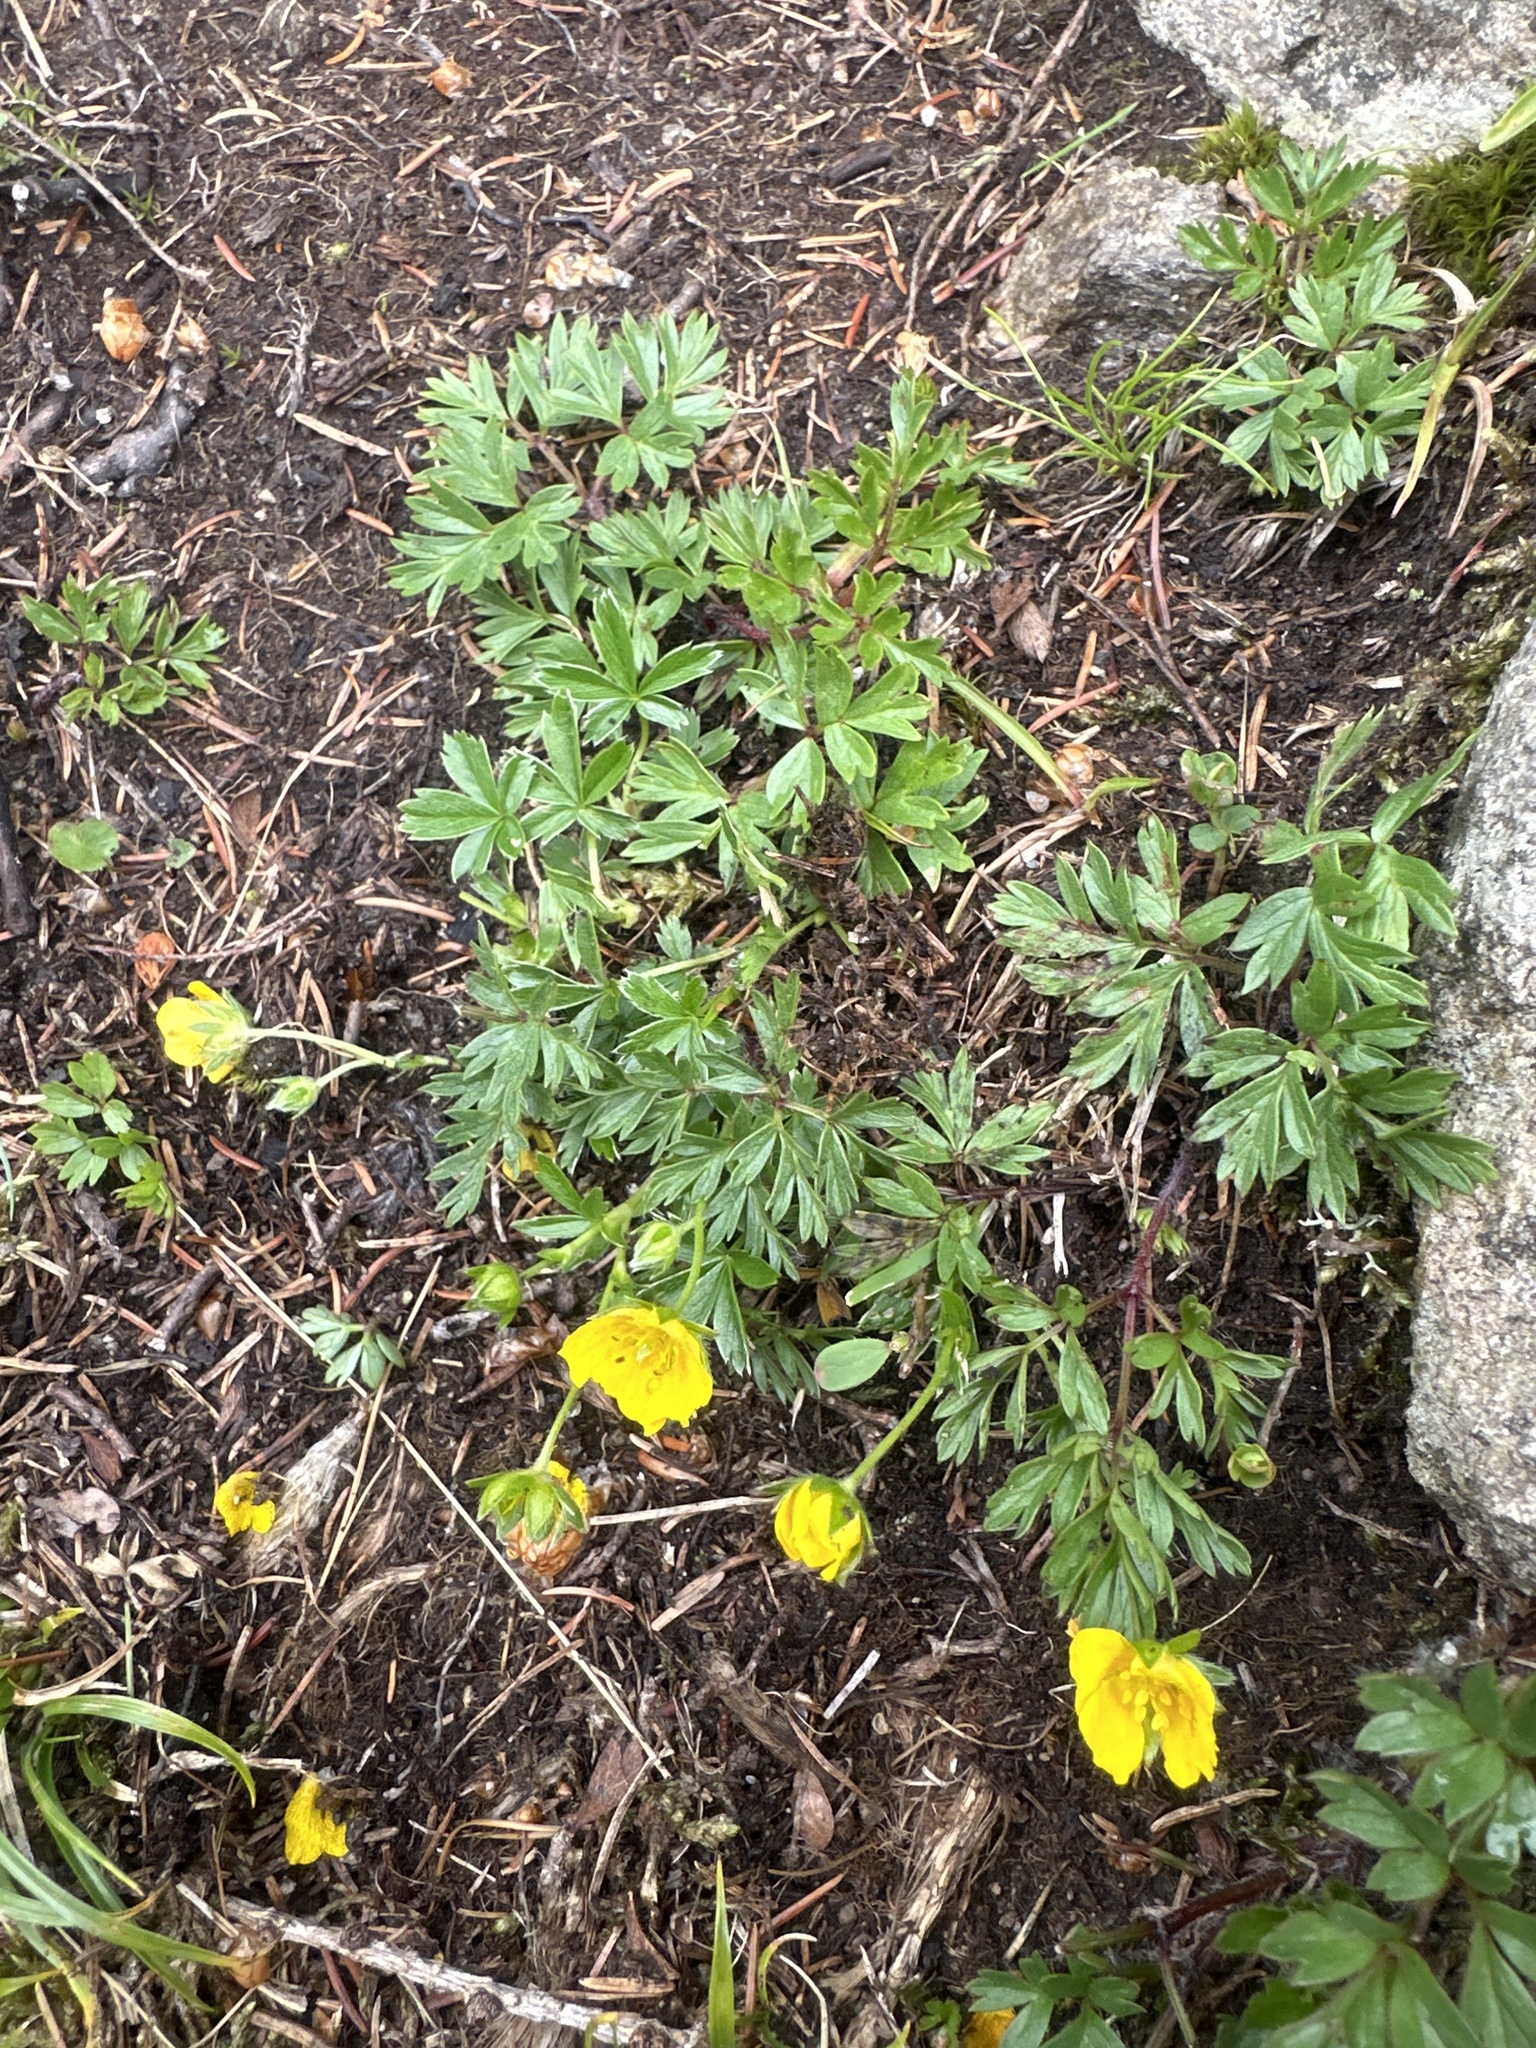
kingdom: Plantae
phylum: Tracheophyta
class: Magnoliopsida
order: Rosales
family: Rosaceae
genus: Potentilla
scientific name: Potentilla aurea
